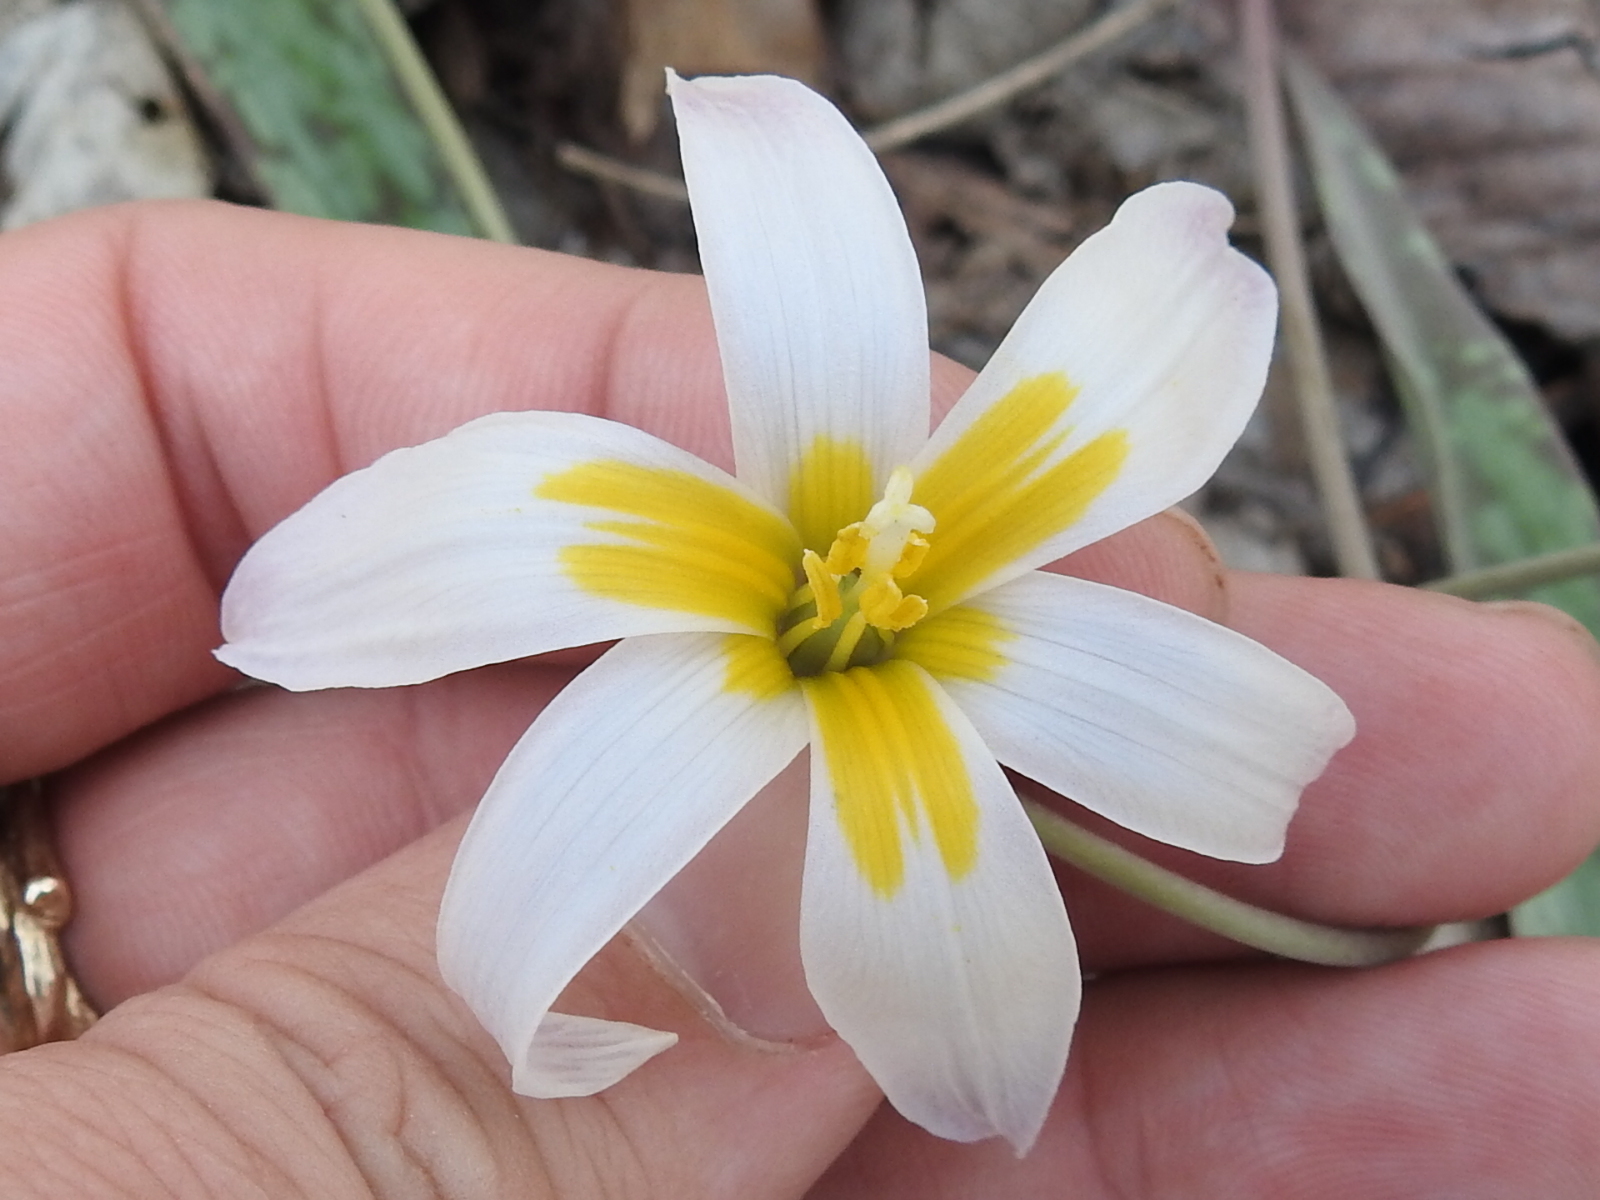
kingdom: Plantae
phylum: Tracheophyta
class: Liliopsida
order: Liliales
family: Liliaceae
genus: Erythronium
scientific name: Erythronium albidum
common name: White trout-lily
